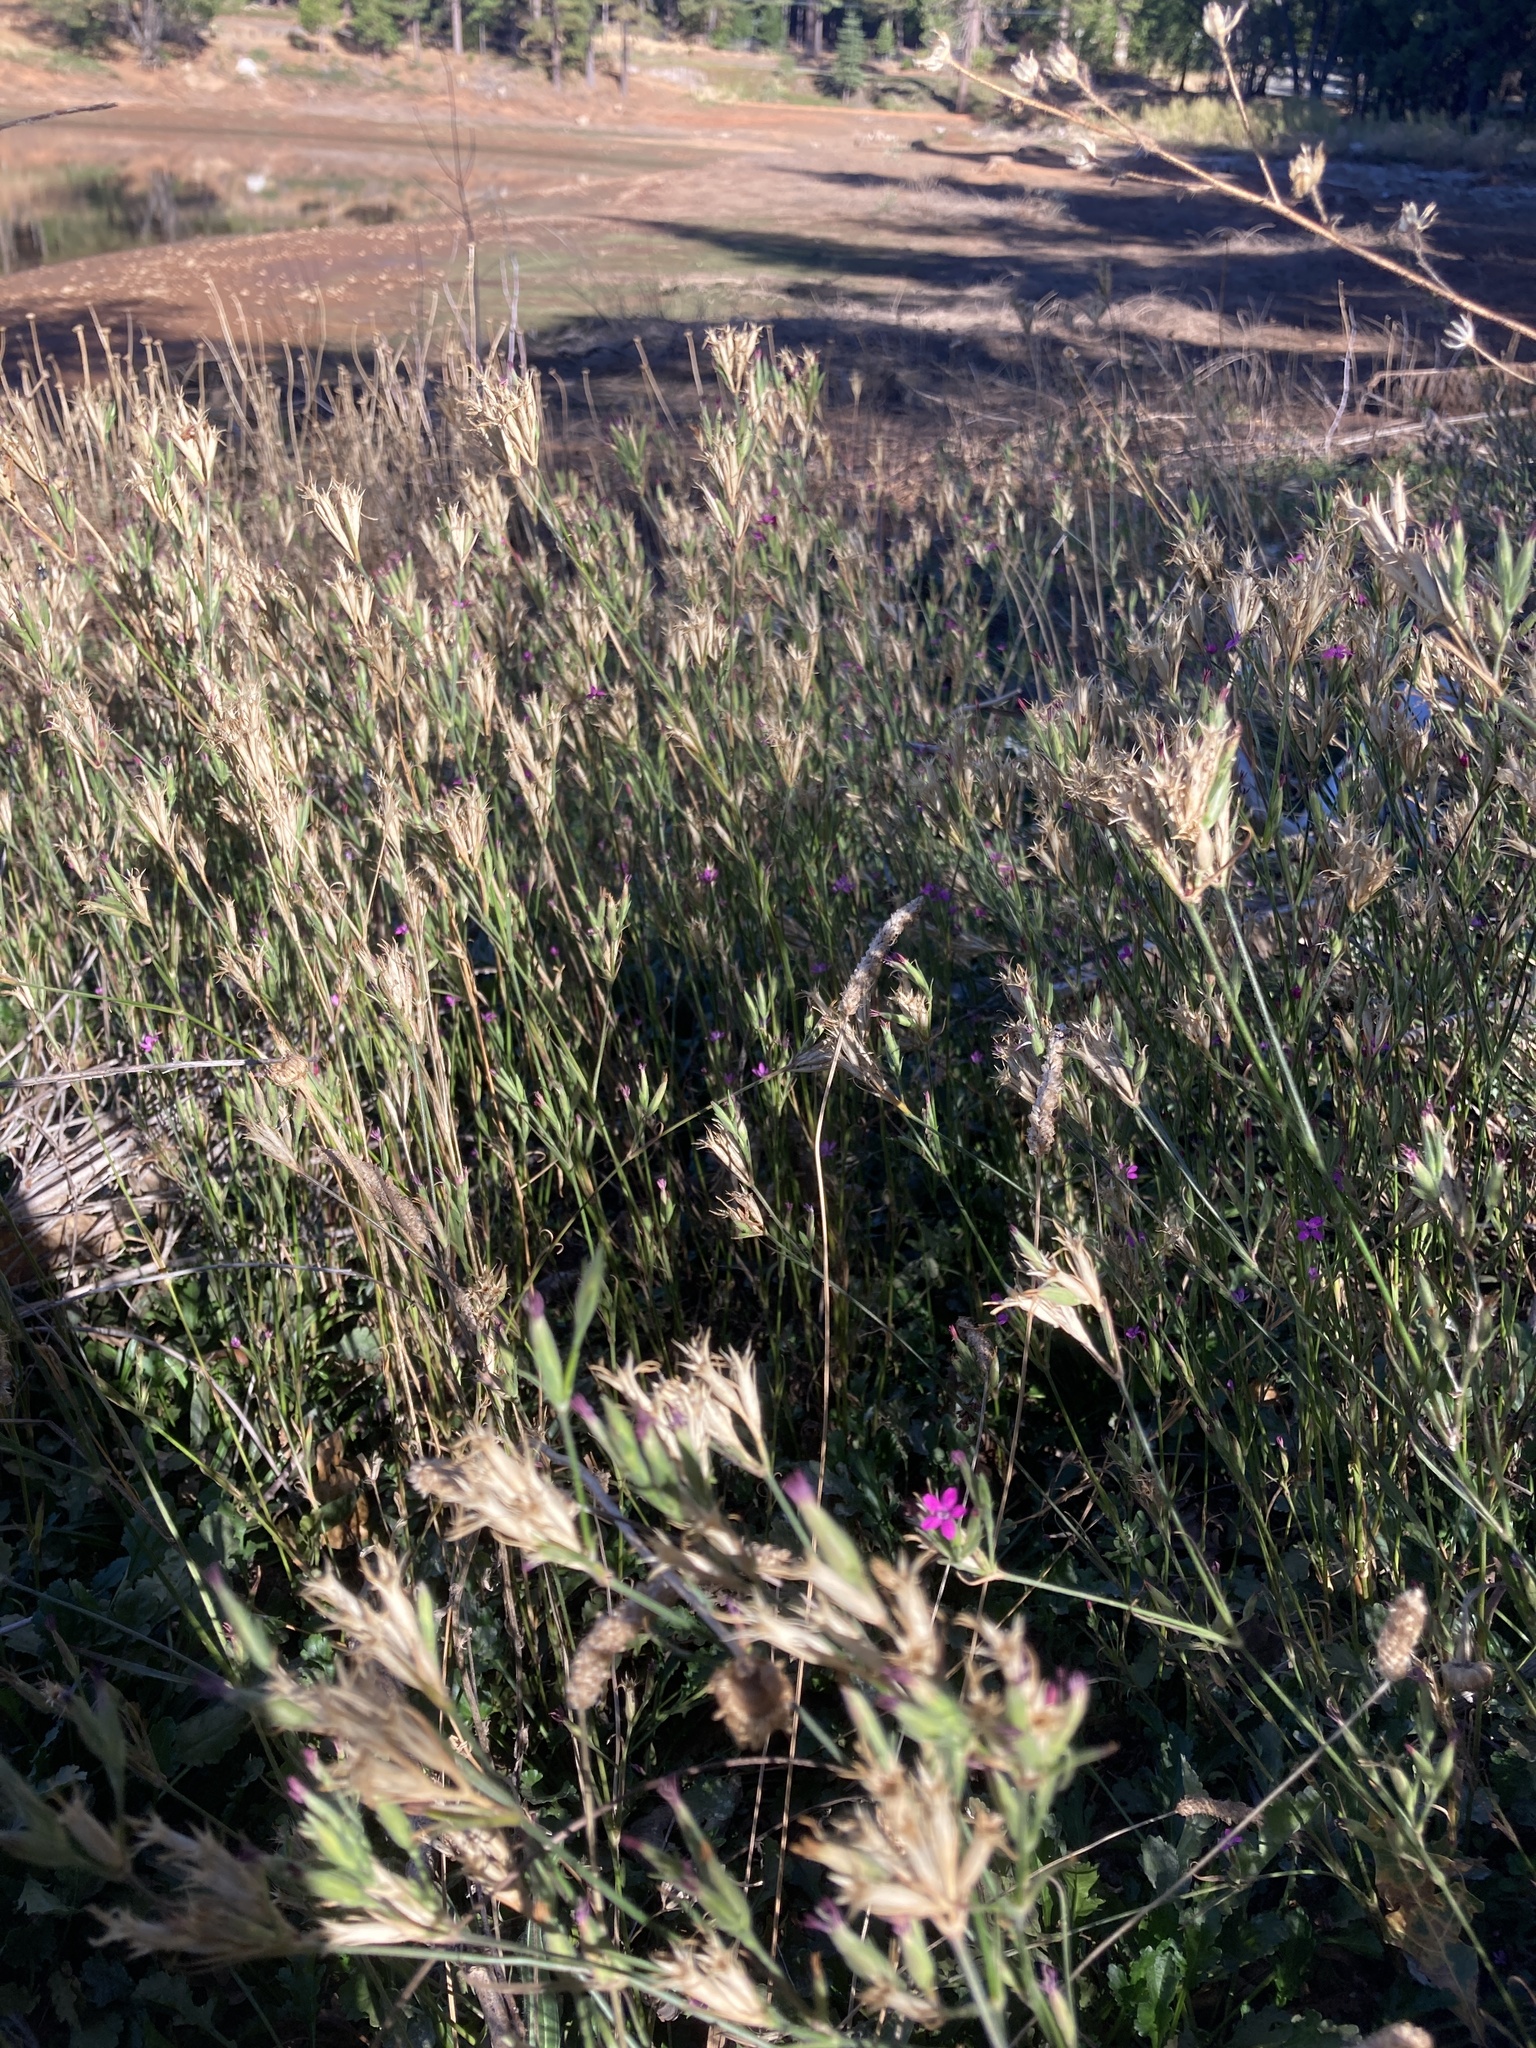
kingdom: Plantae
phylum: Tracheophyta
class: Magnoliopsida
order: Caryophyllales
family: Caryophyllaceae
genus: Dianthus
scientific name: Dianthus armeria
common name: Deptford pink
